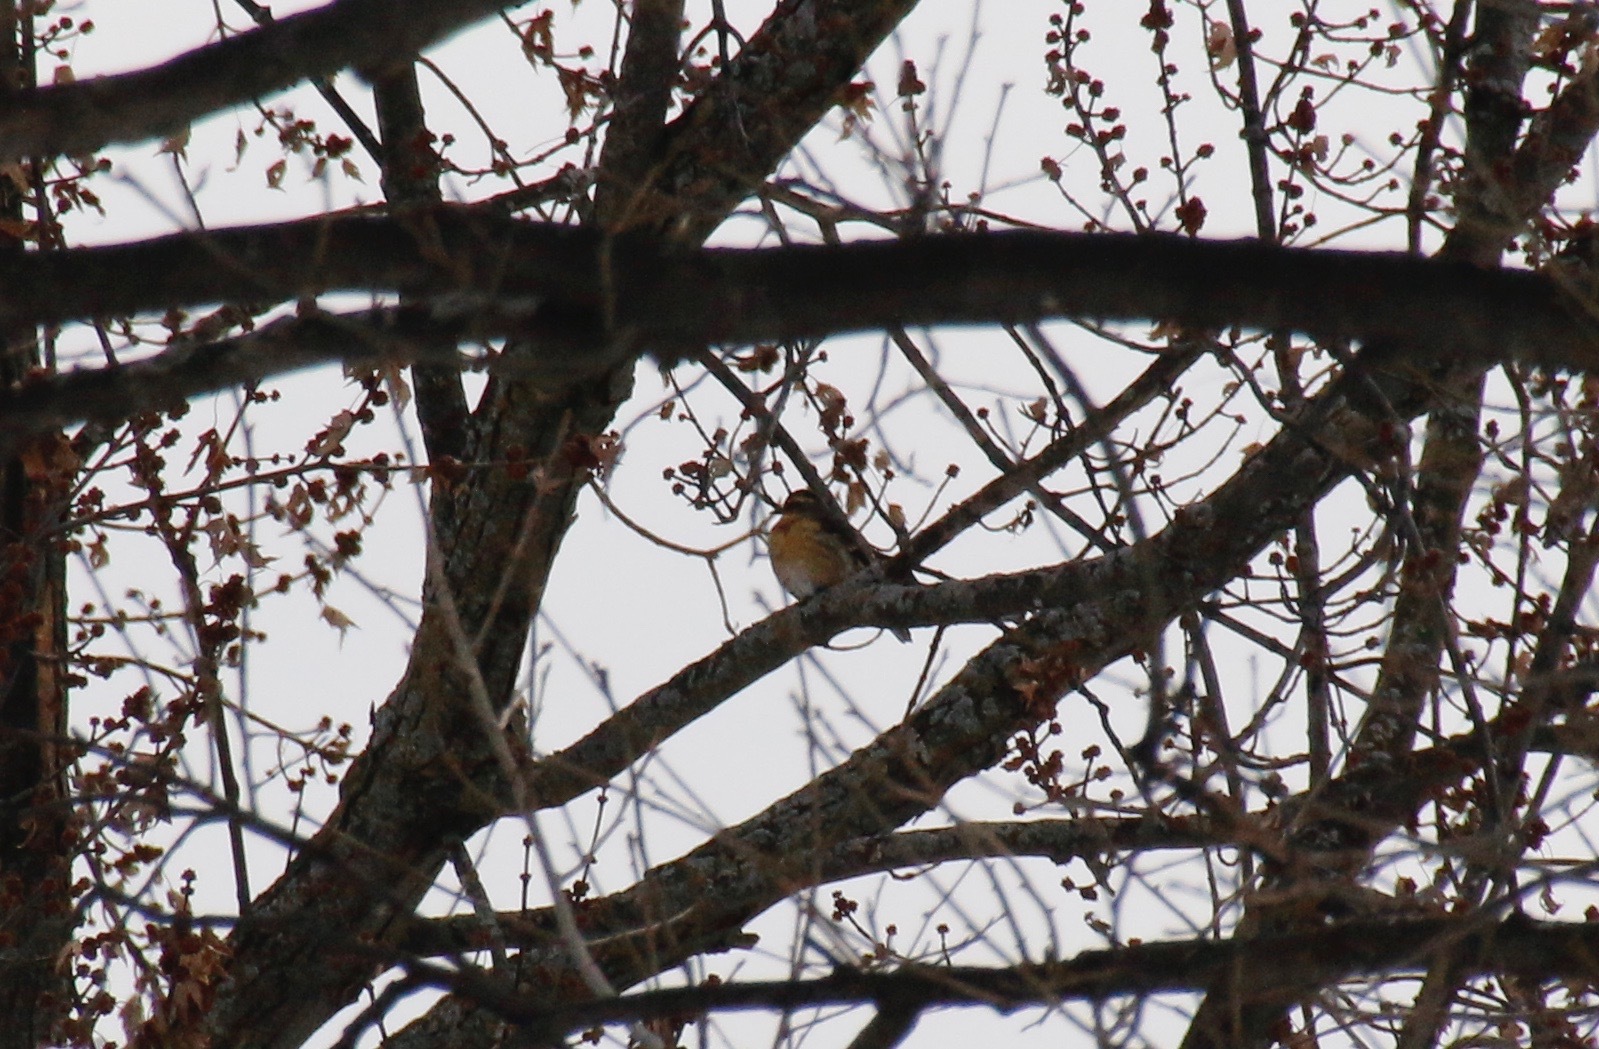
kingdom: Animalia
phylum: Chordata
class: Aves
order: Passeriformes
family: Turdidae
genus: Ixoreus
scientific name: Ixoreus naevius
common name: Varied thrush
